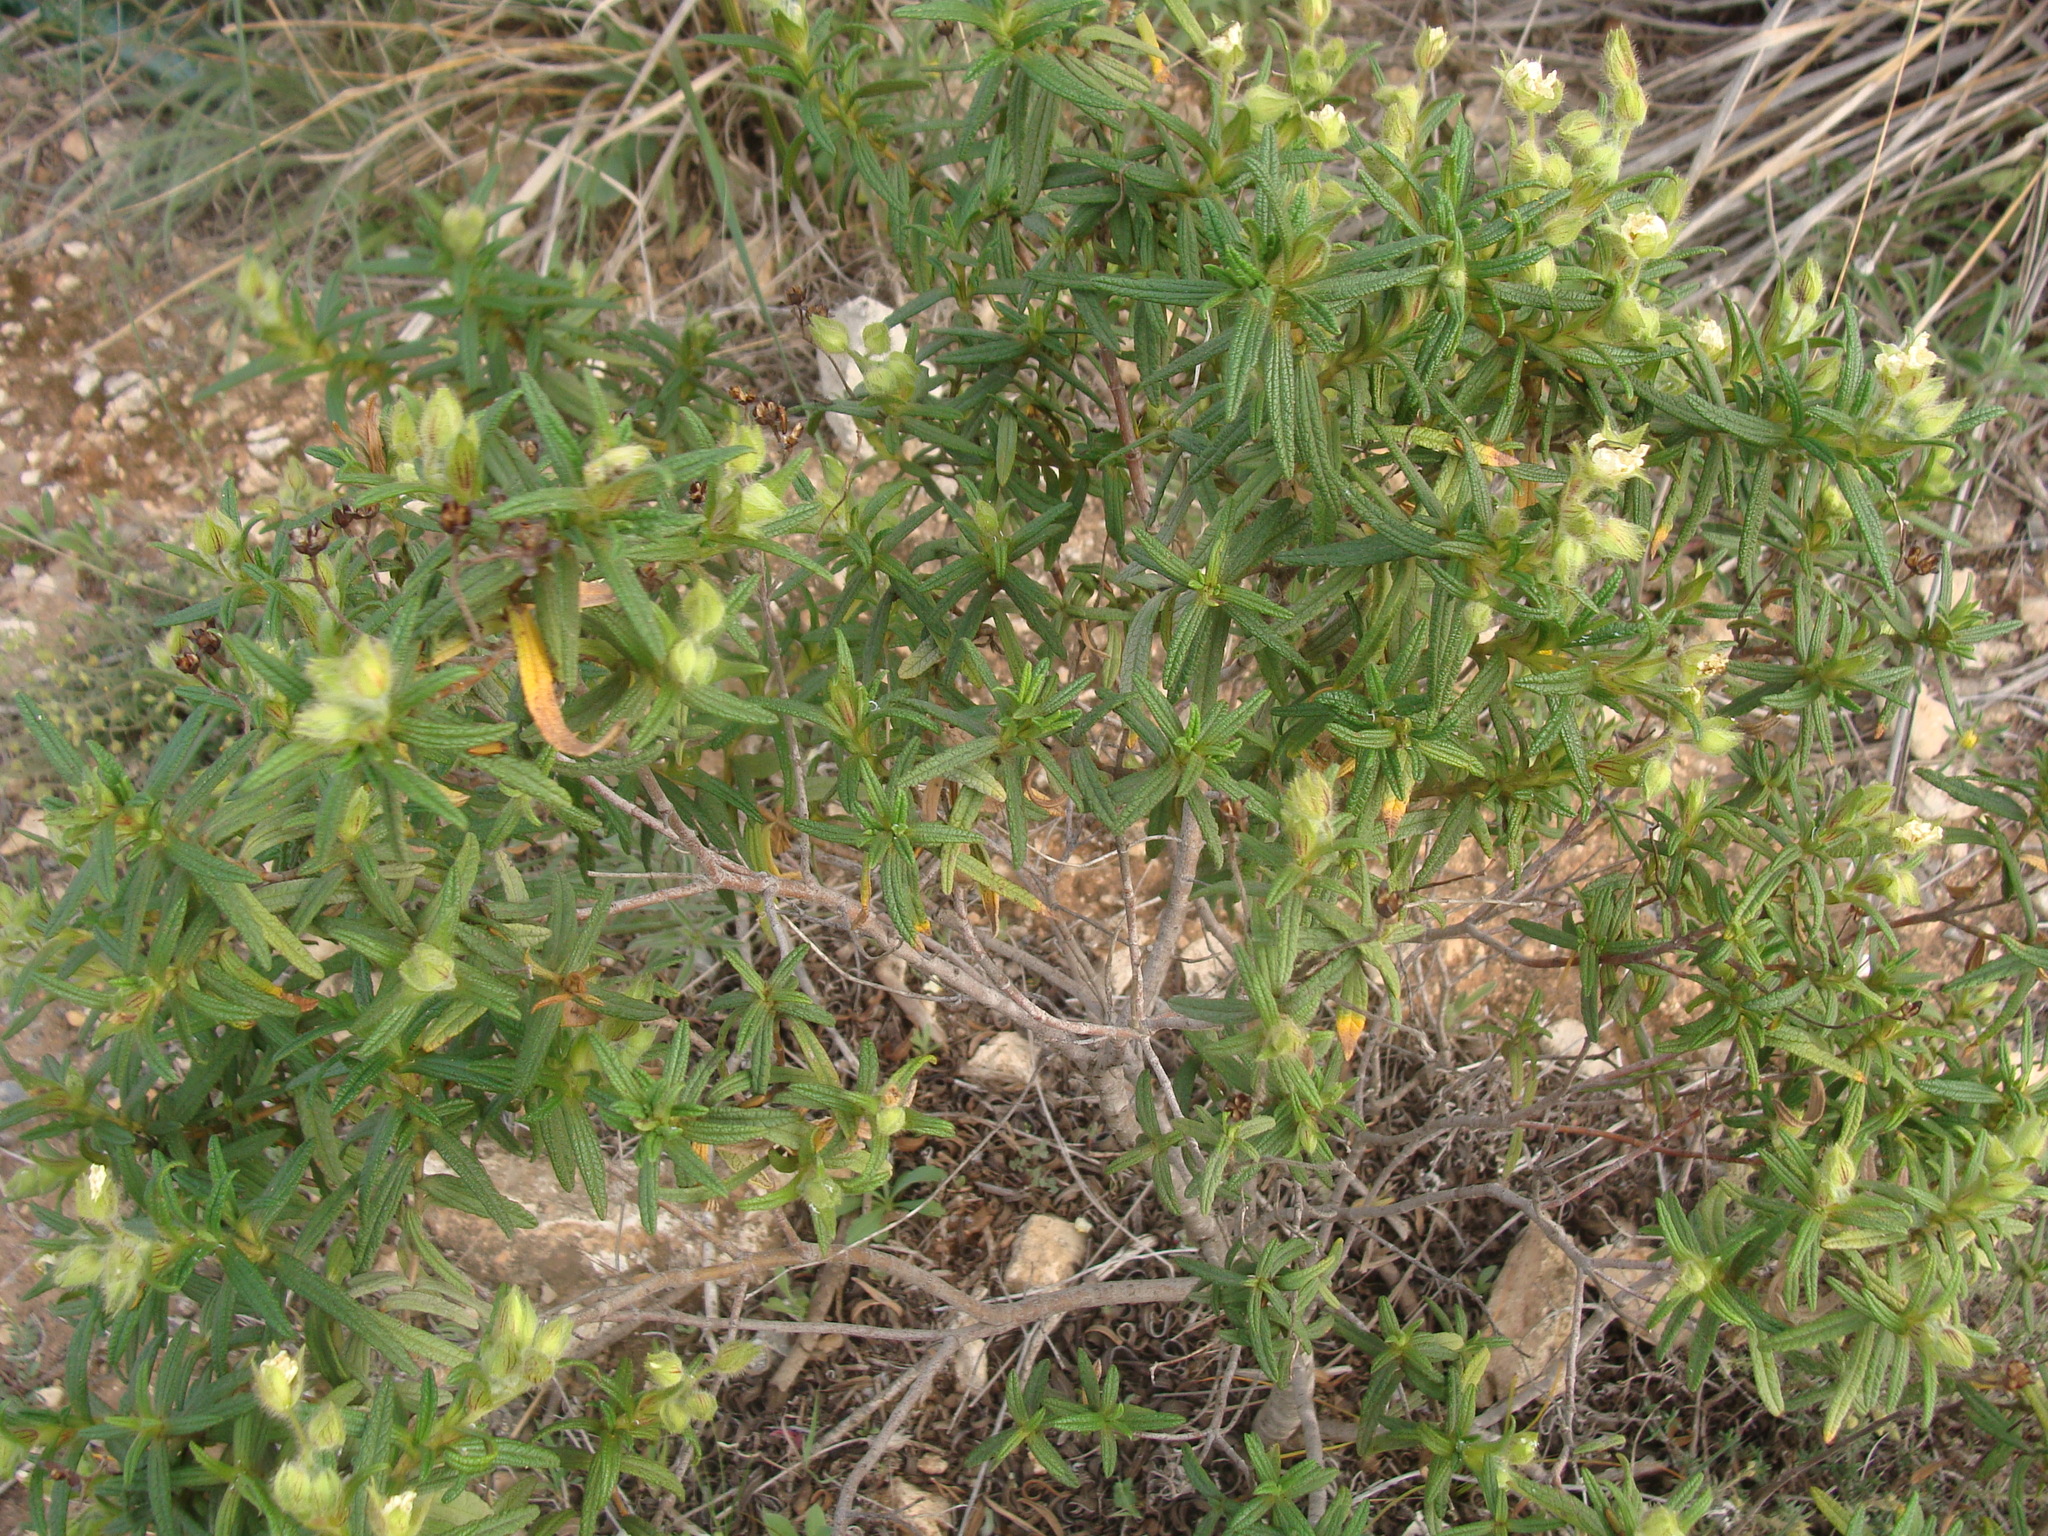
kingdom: Plantae
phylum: Tracheophyta
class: Magnoliopsida
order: Malvales
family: Cistaceae
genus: Cistus
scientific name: Cistus monspeliensis
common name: Montpelier cistus
